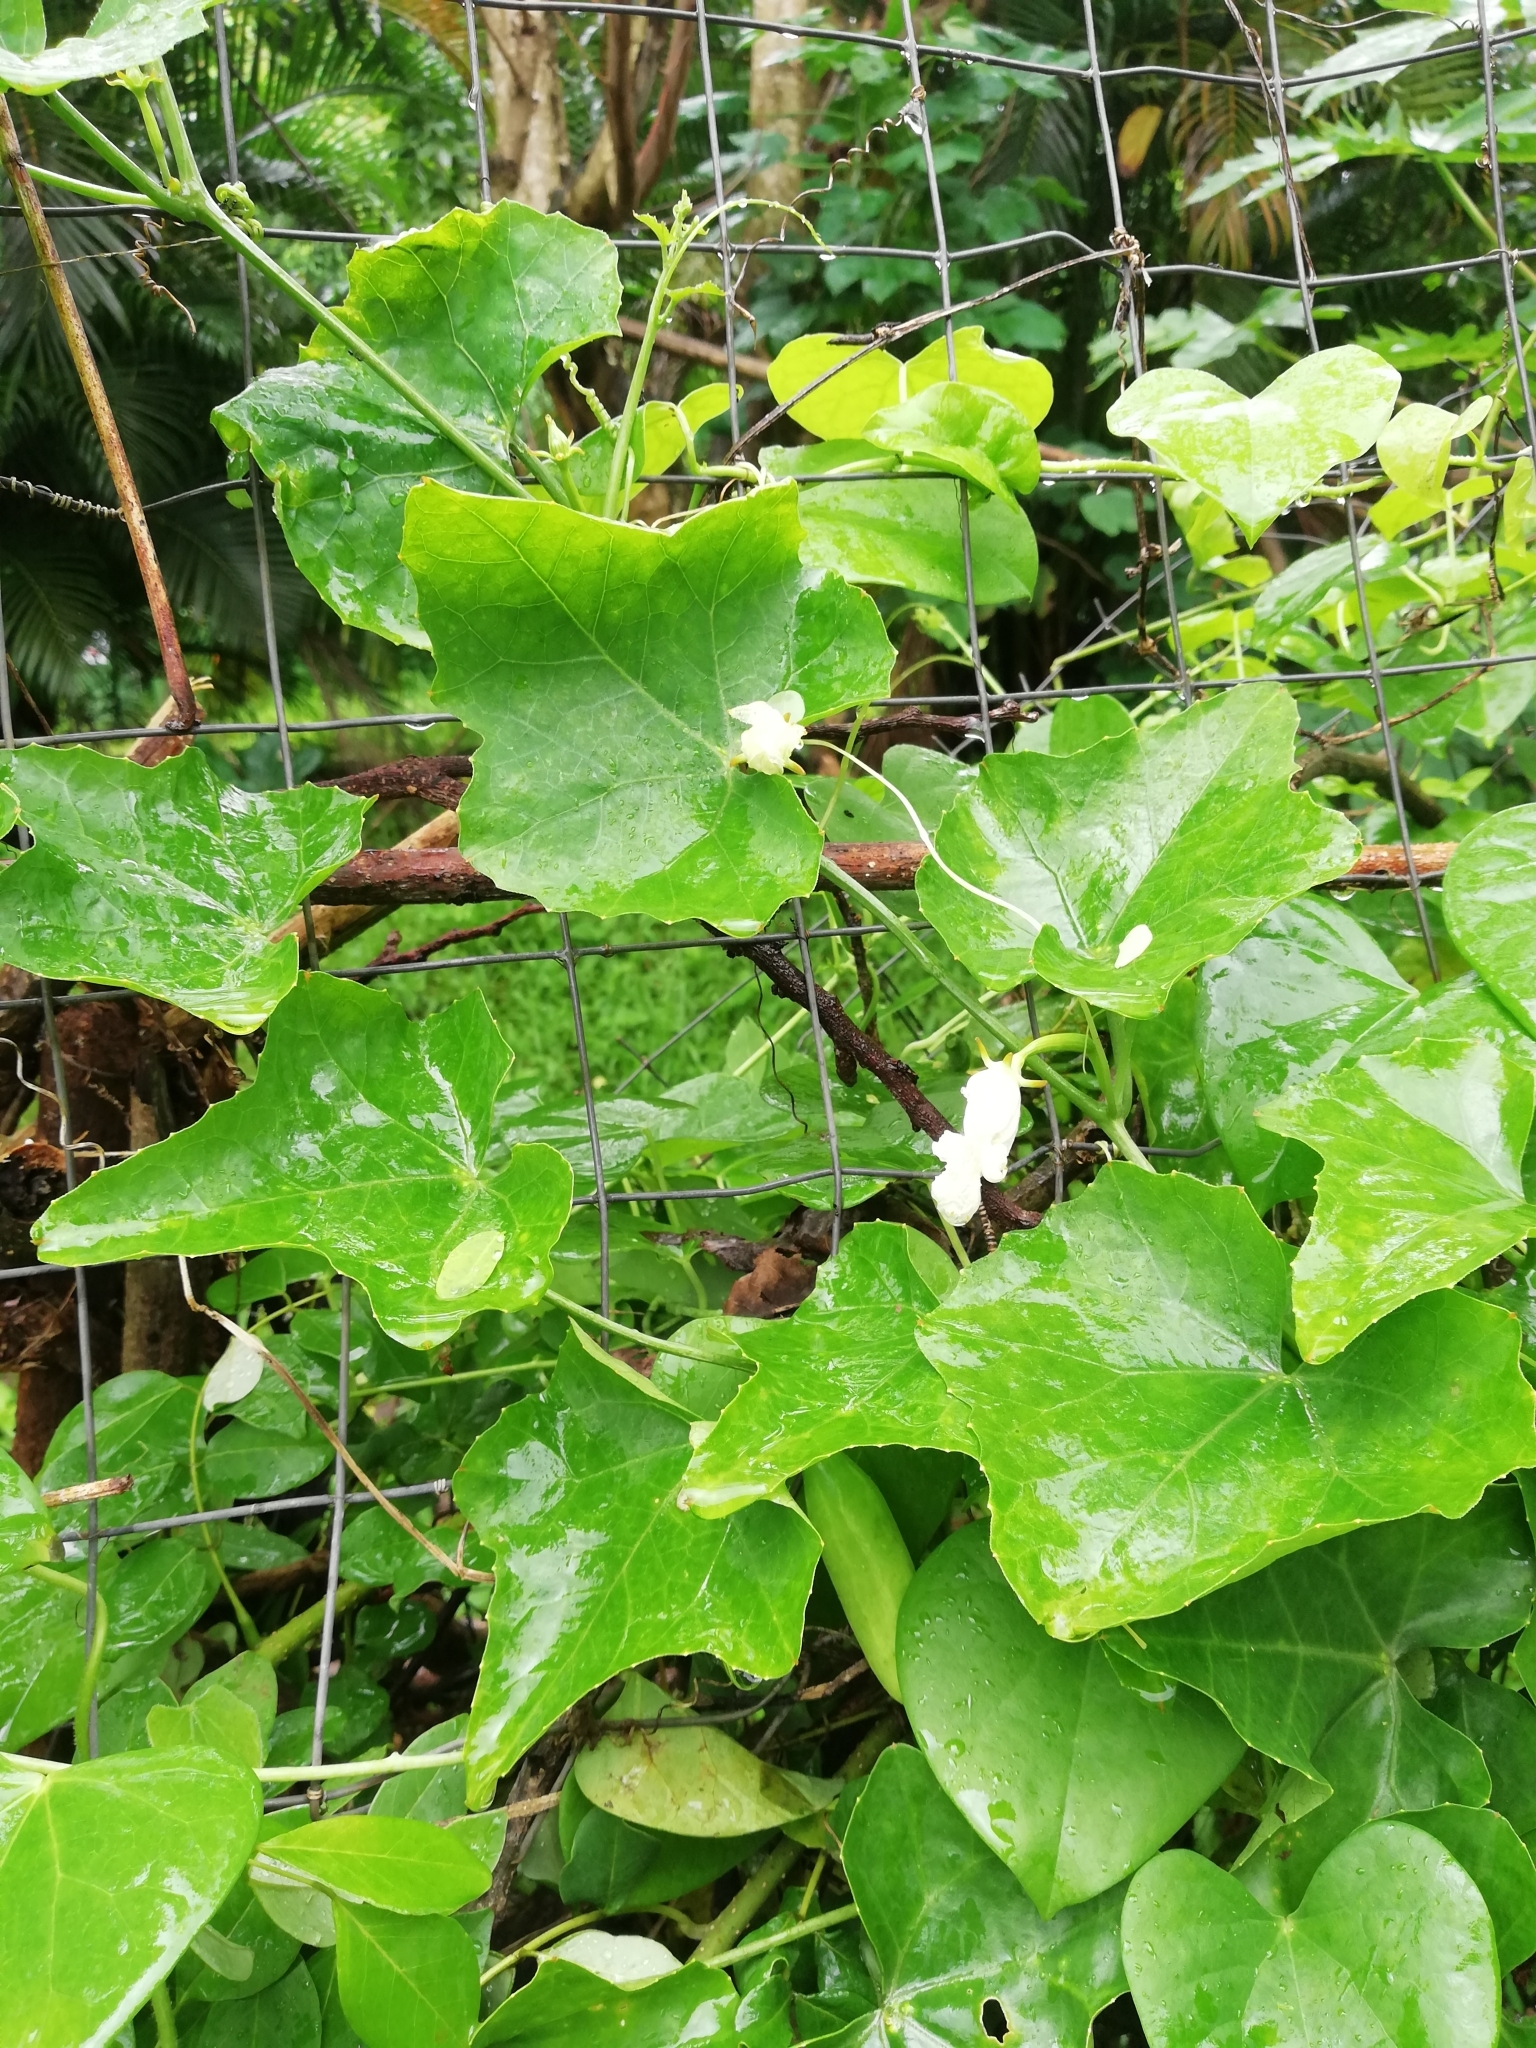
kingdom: Plantae
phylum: Tracheophyta
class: Magnoliopsida
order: Cucurbitales
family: Cucurbitaceae
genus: Coccinia
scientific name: Coccinia grandis
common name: Ivy gourd
